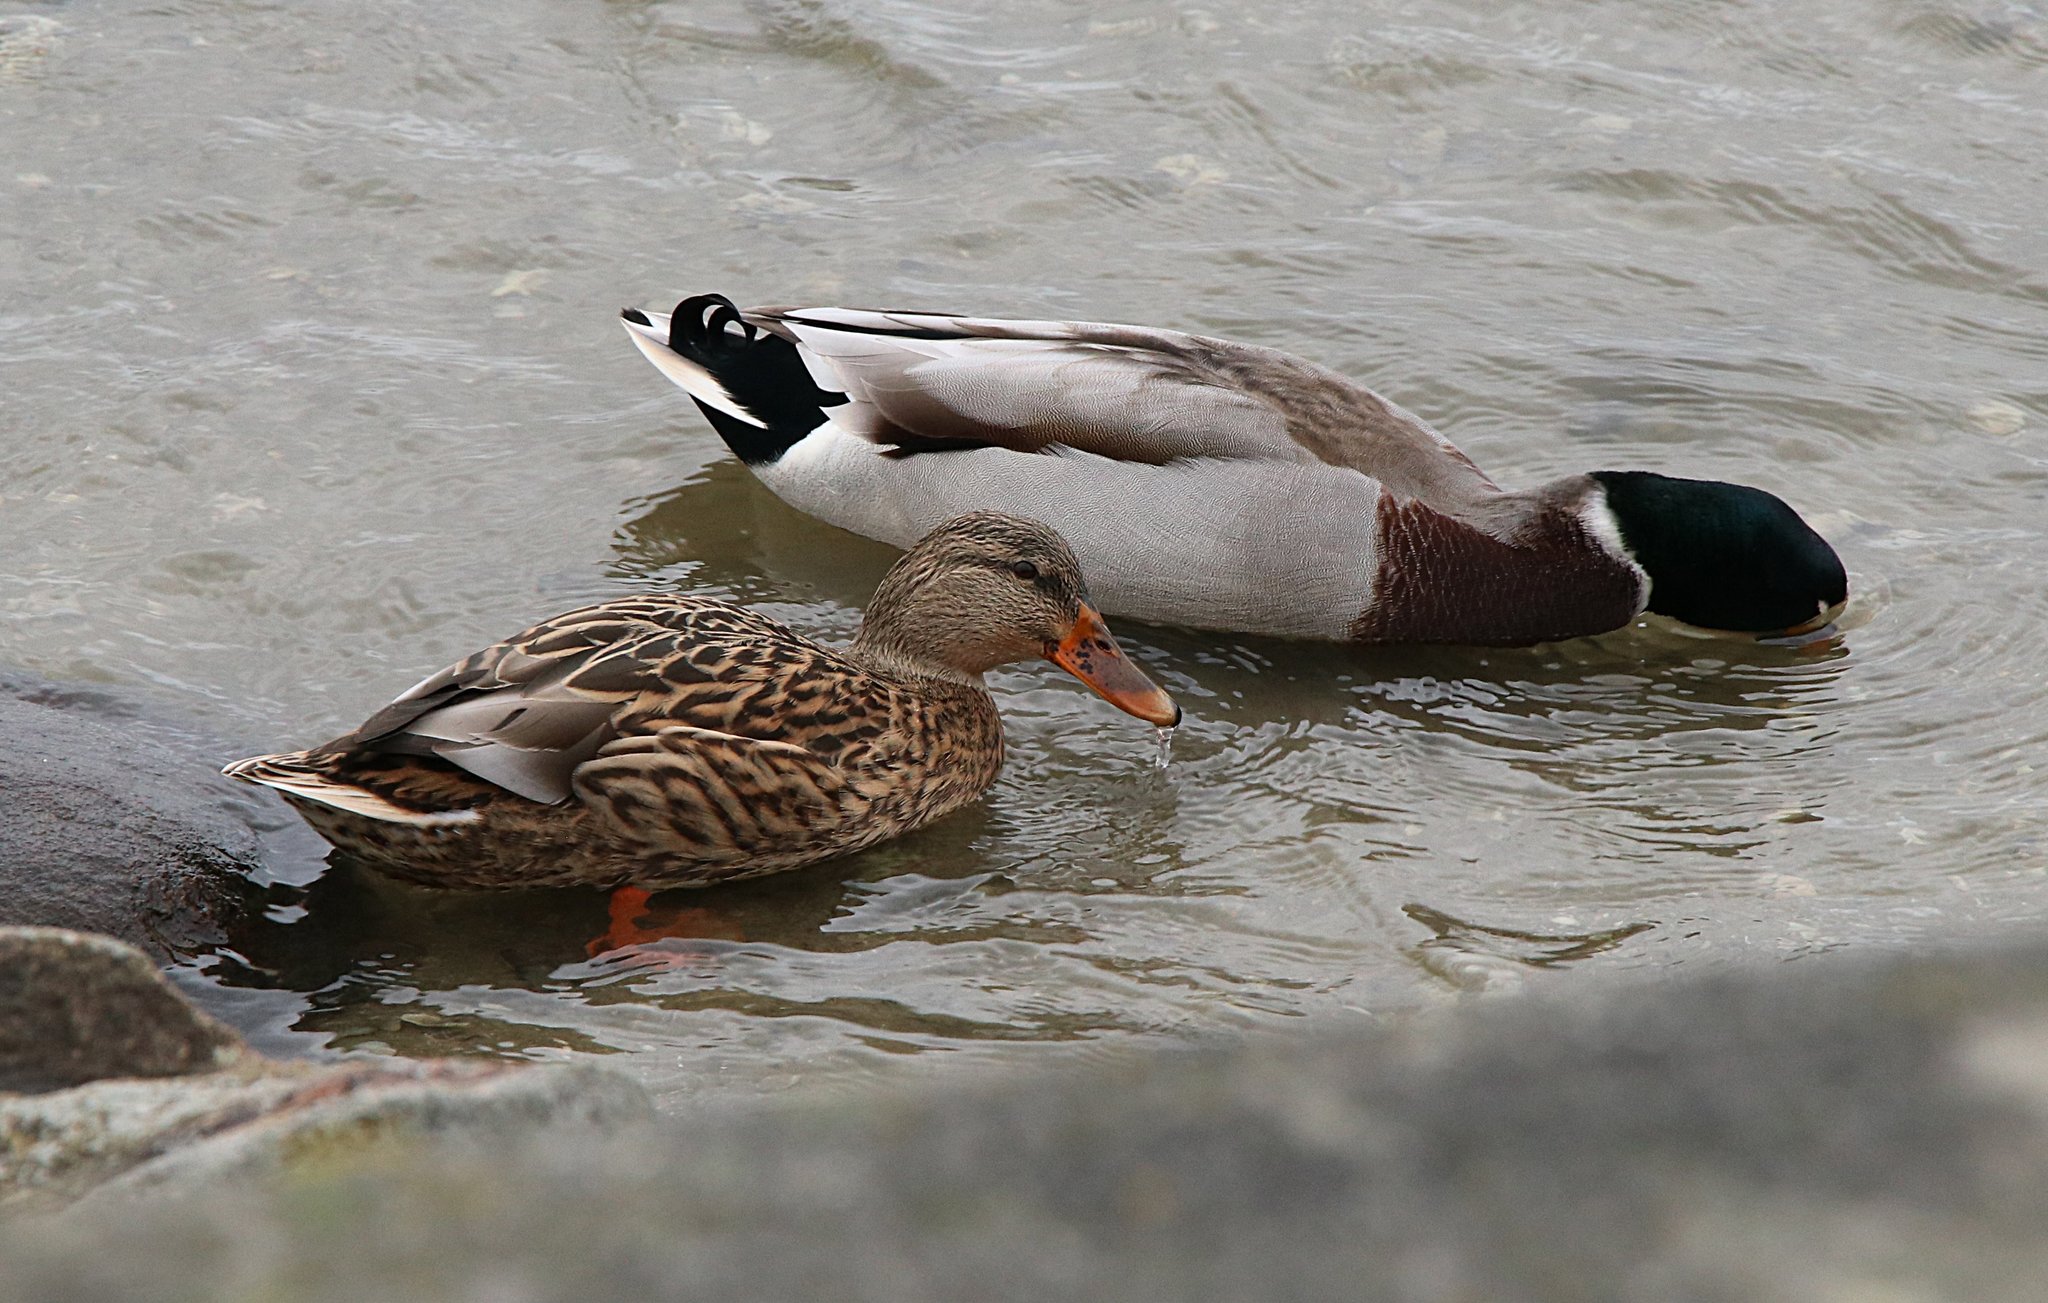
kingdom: Animalia
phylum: Chordata
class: Aves
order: Anseriformes
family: Anatidae
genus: Anas
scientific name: Anas platyrhynchos
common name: Mallard
